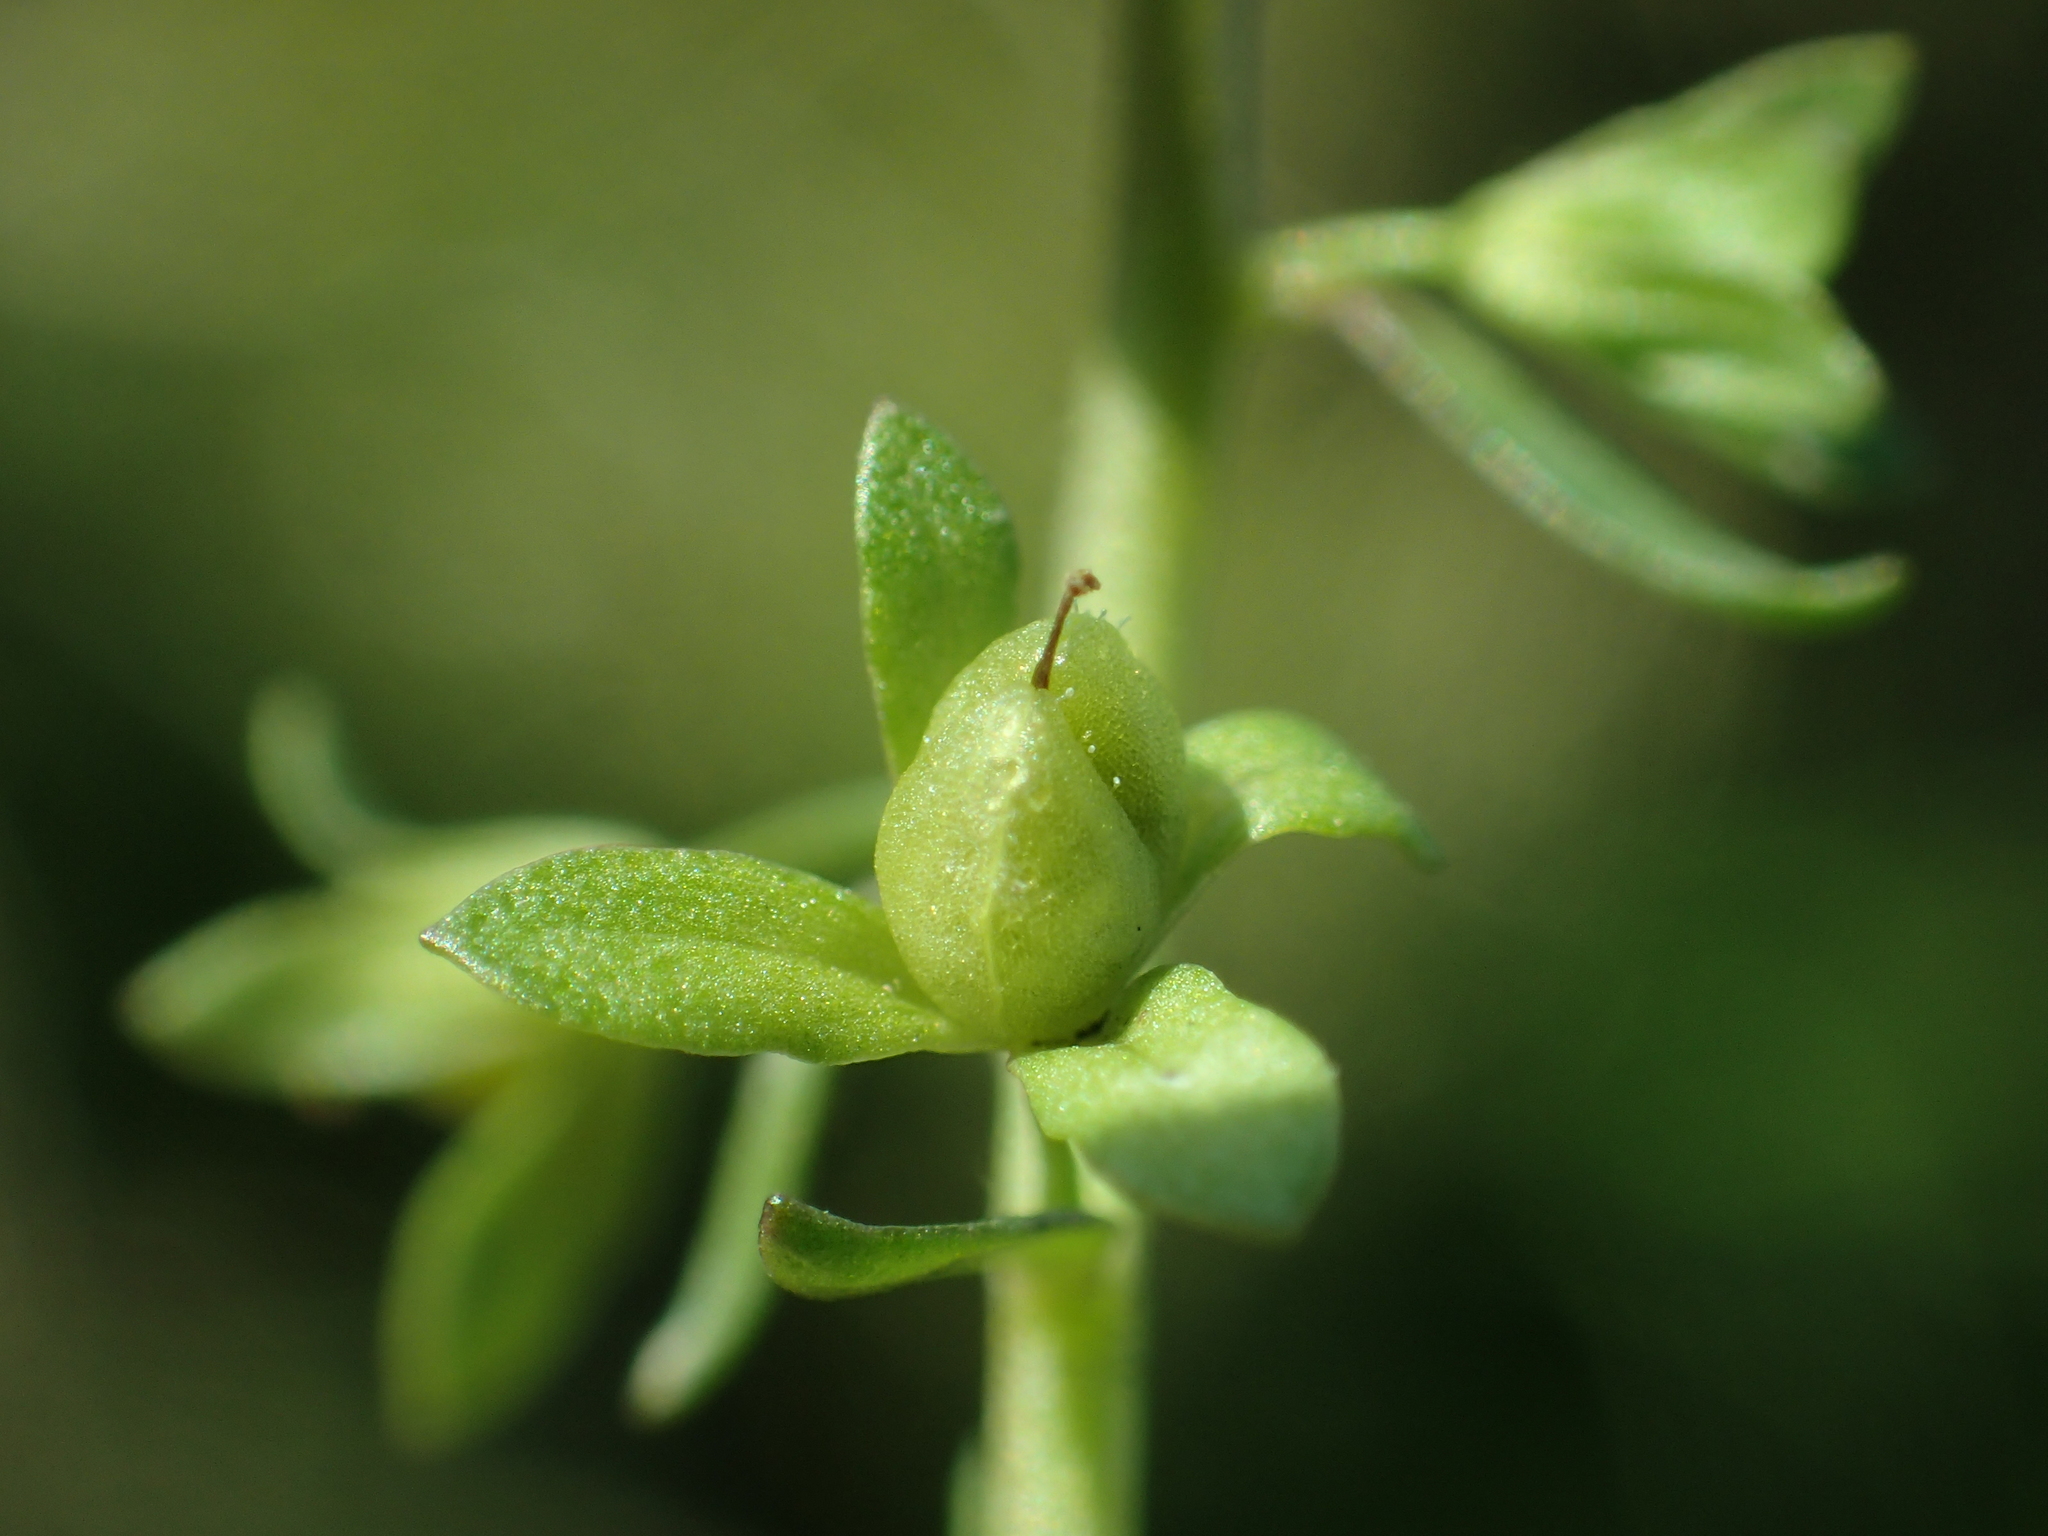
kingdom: Plantae
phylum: Tracheophyta
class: Magnoliopsida
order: Lamiales
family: Plantaginaceae
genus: Veronica
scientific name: Veronica undulata
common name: Undulate speedwell
